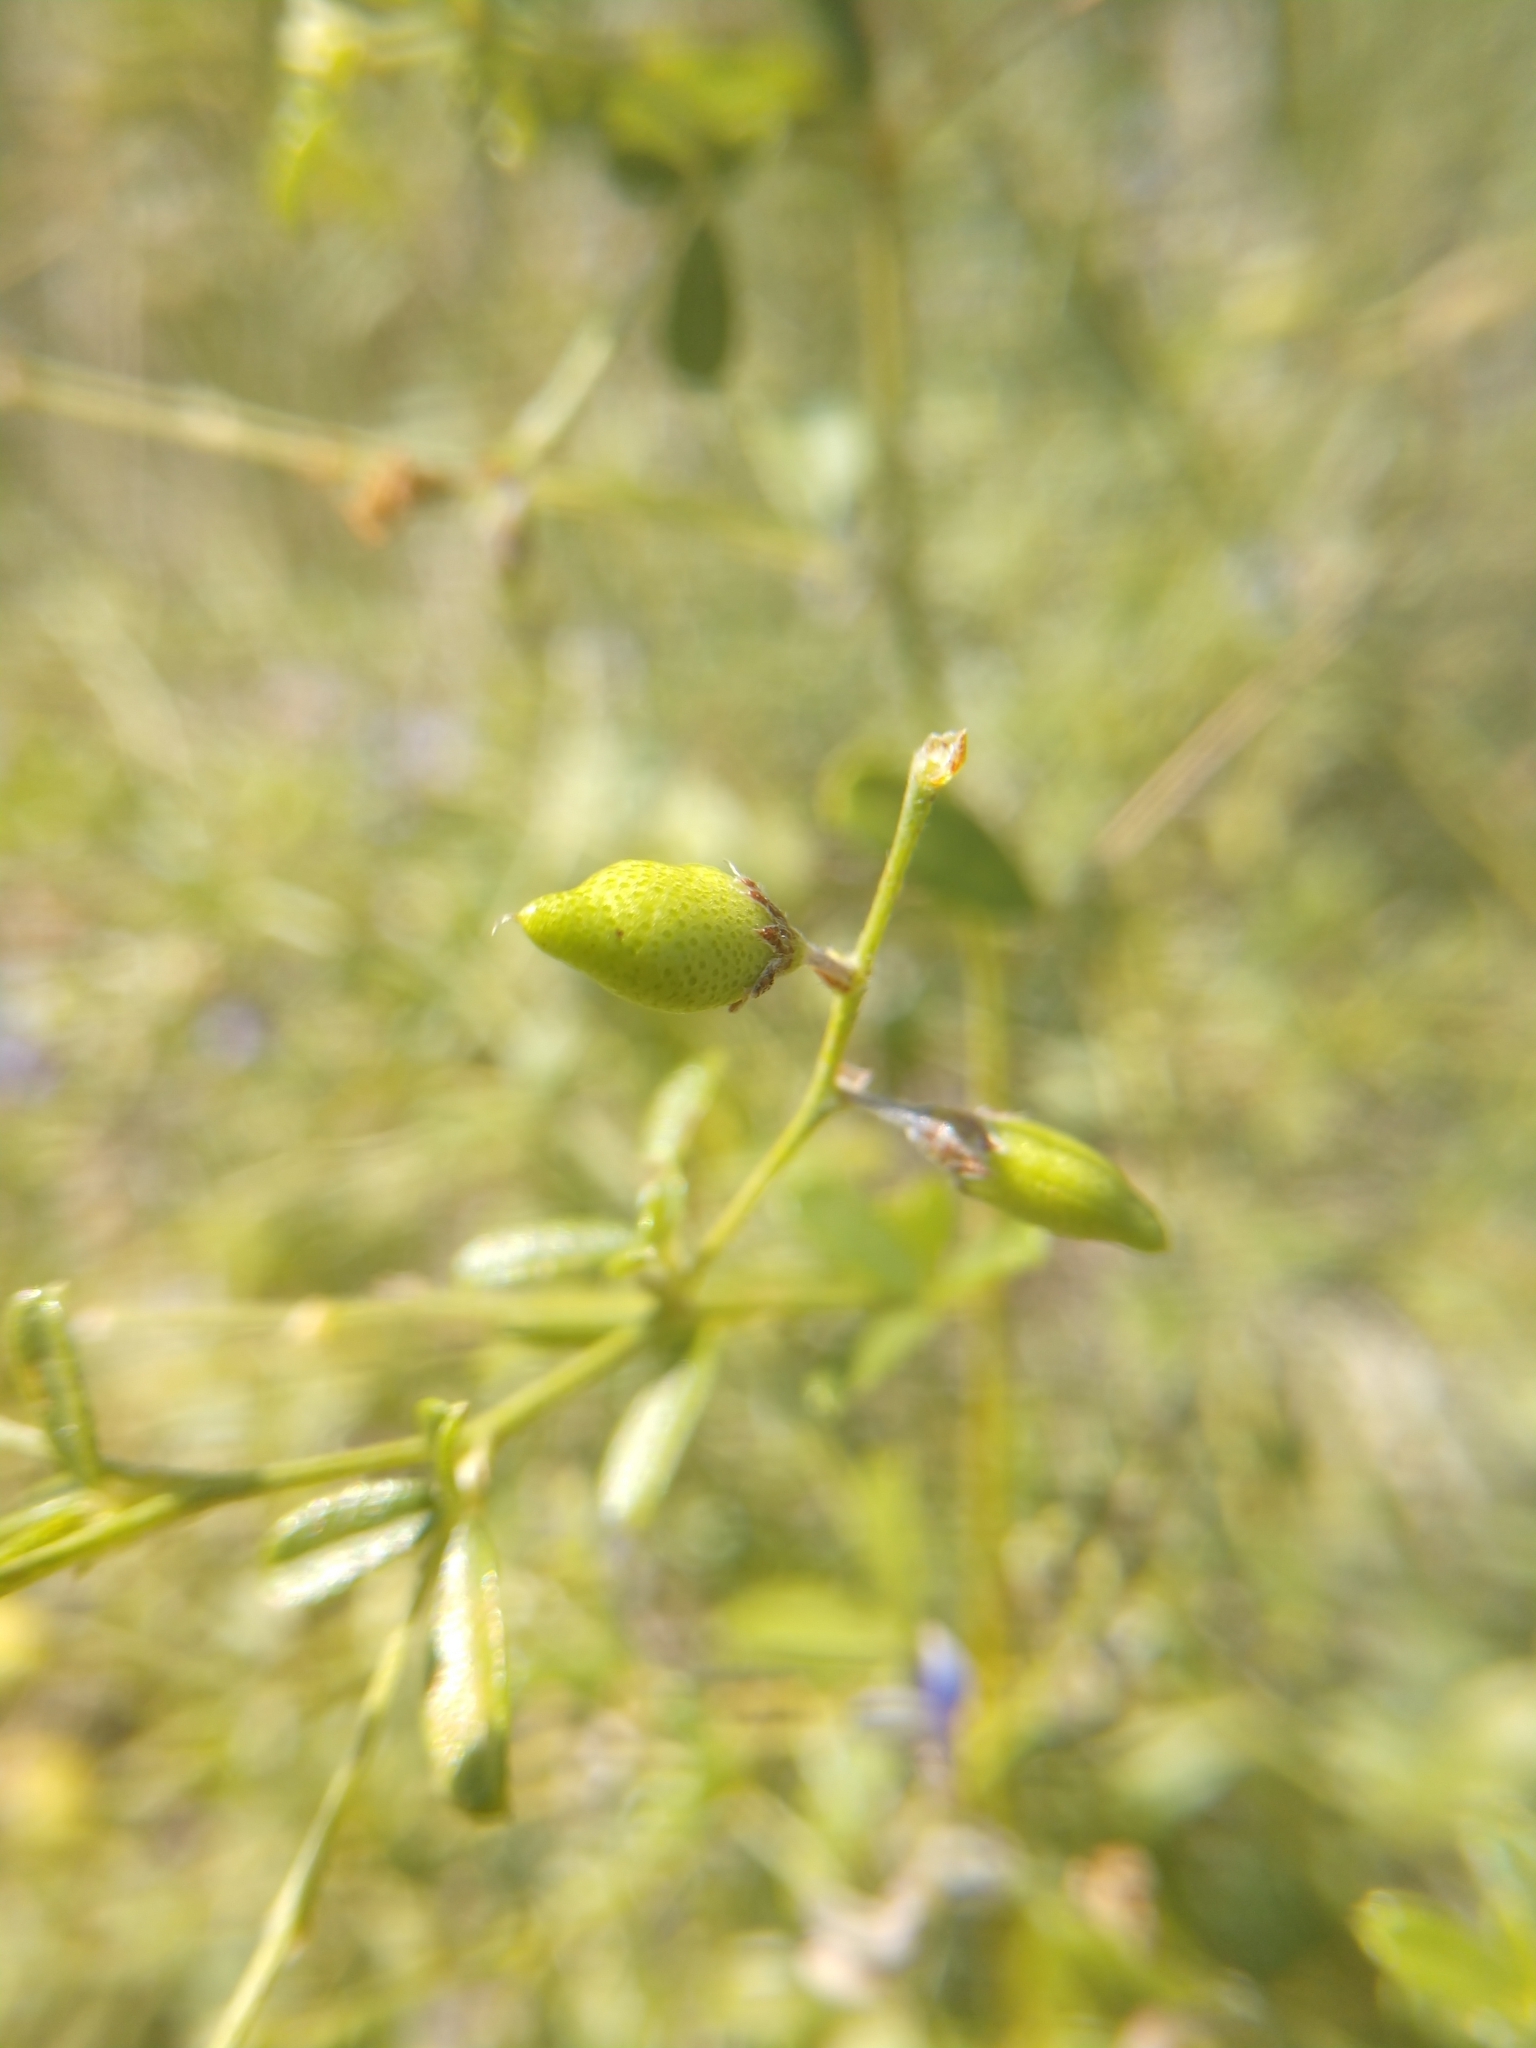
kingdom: Plantae
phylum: Tracheophyta
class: Magnoliopsida
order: Fabales
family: Fabaceae
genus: Pediomelum
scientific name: Pediomelum tenuiflorum
